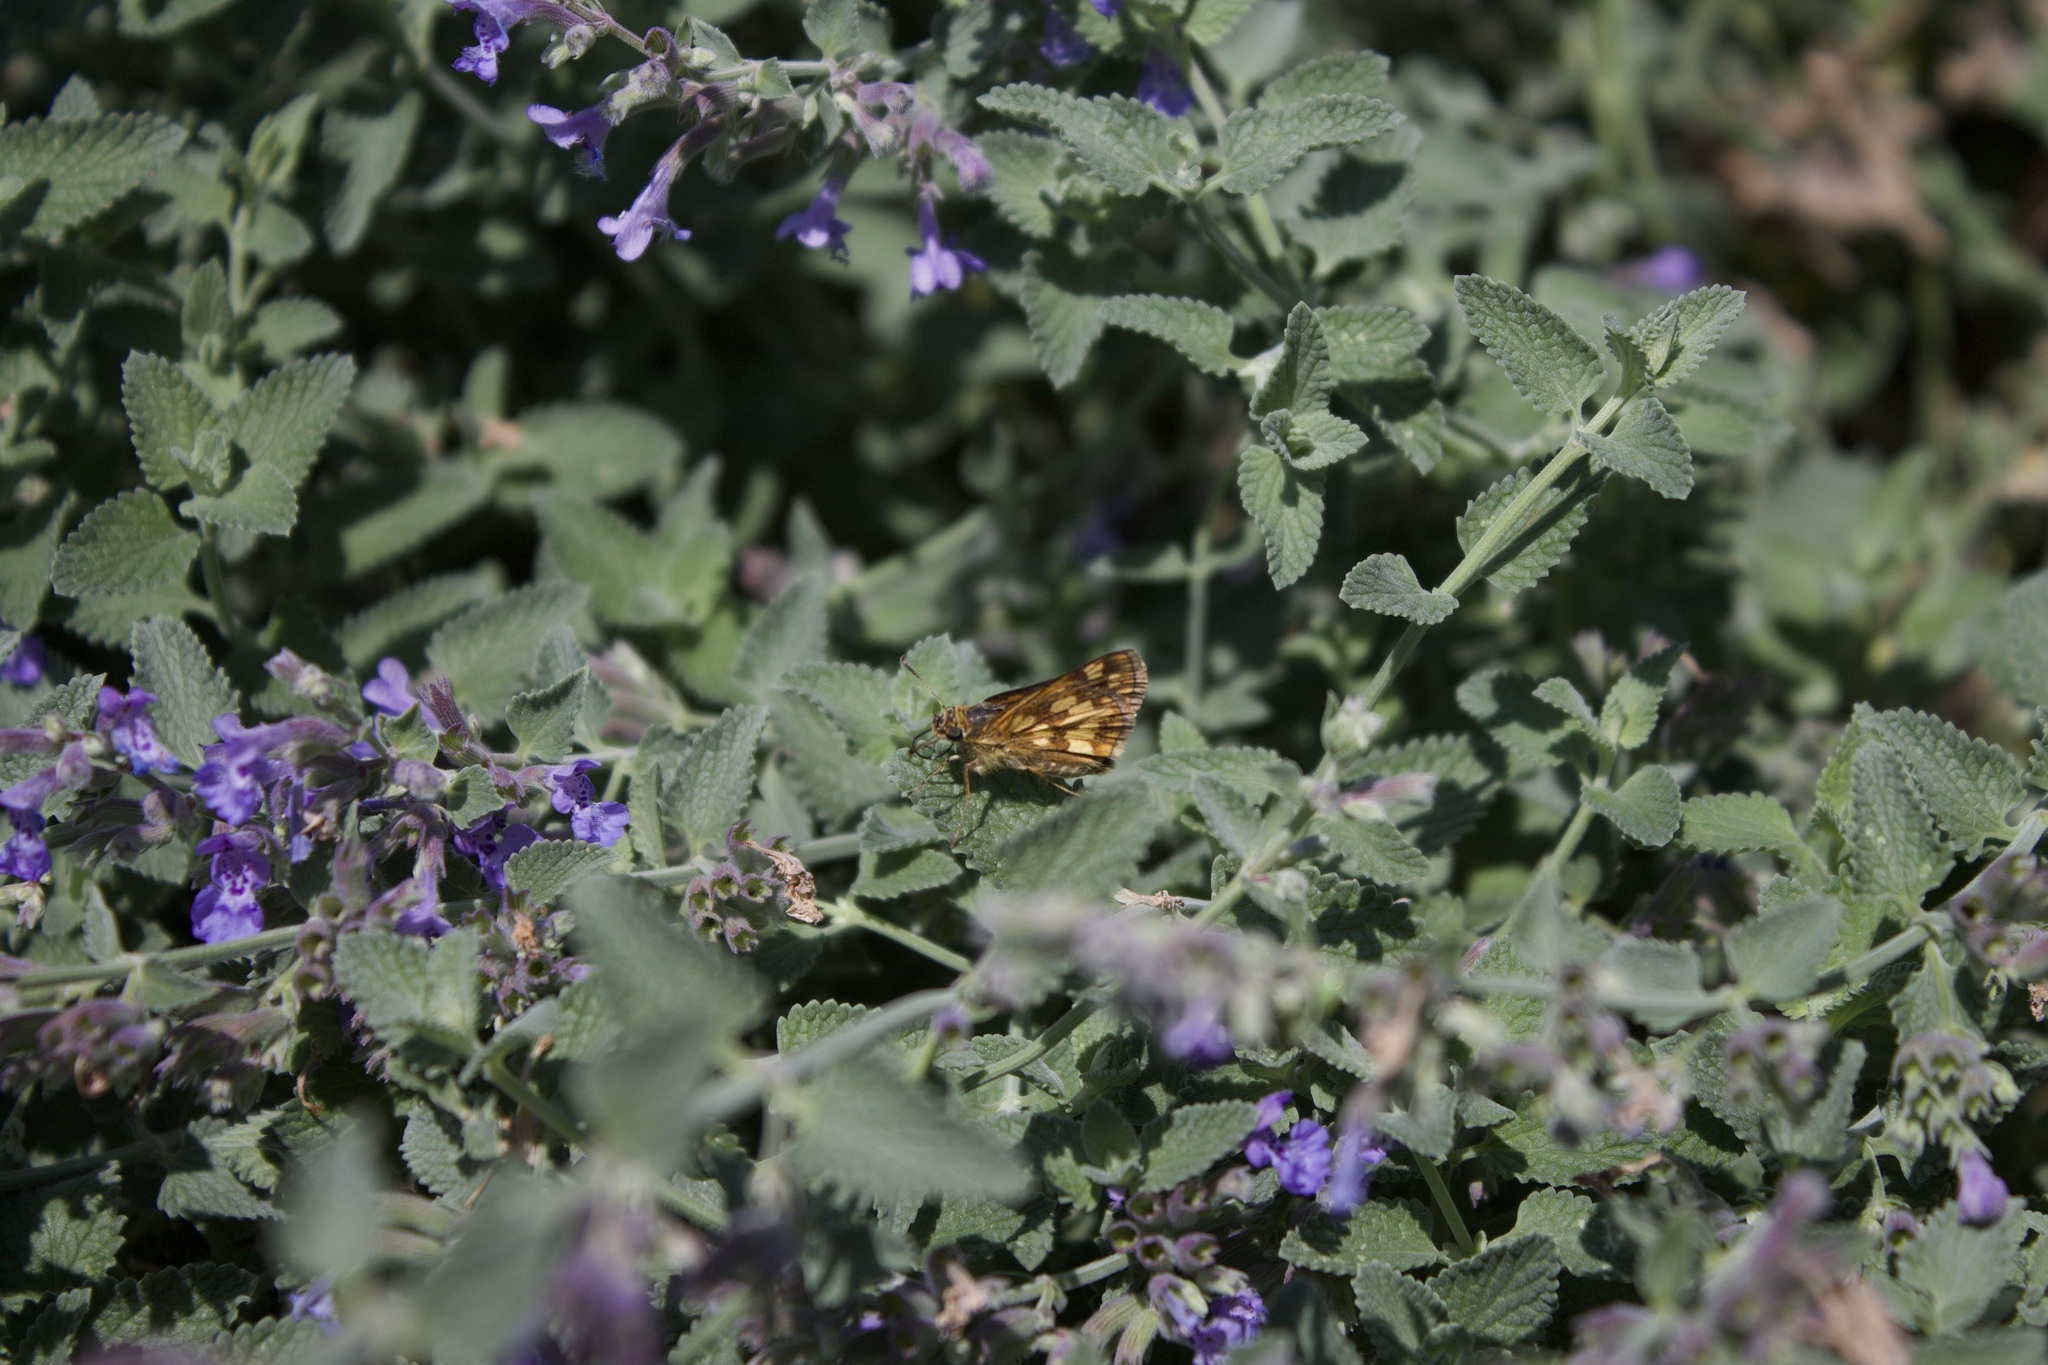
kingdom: Animalia
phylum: Arthropoda
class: Insecta
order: Lepidoptera
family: Hesperiidae
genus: Polites
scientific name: Polites coras
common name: Peck's skipper
